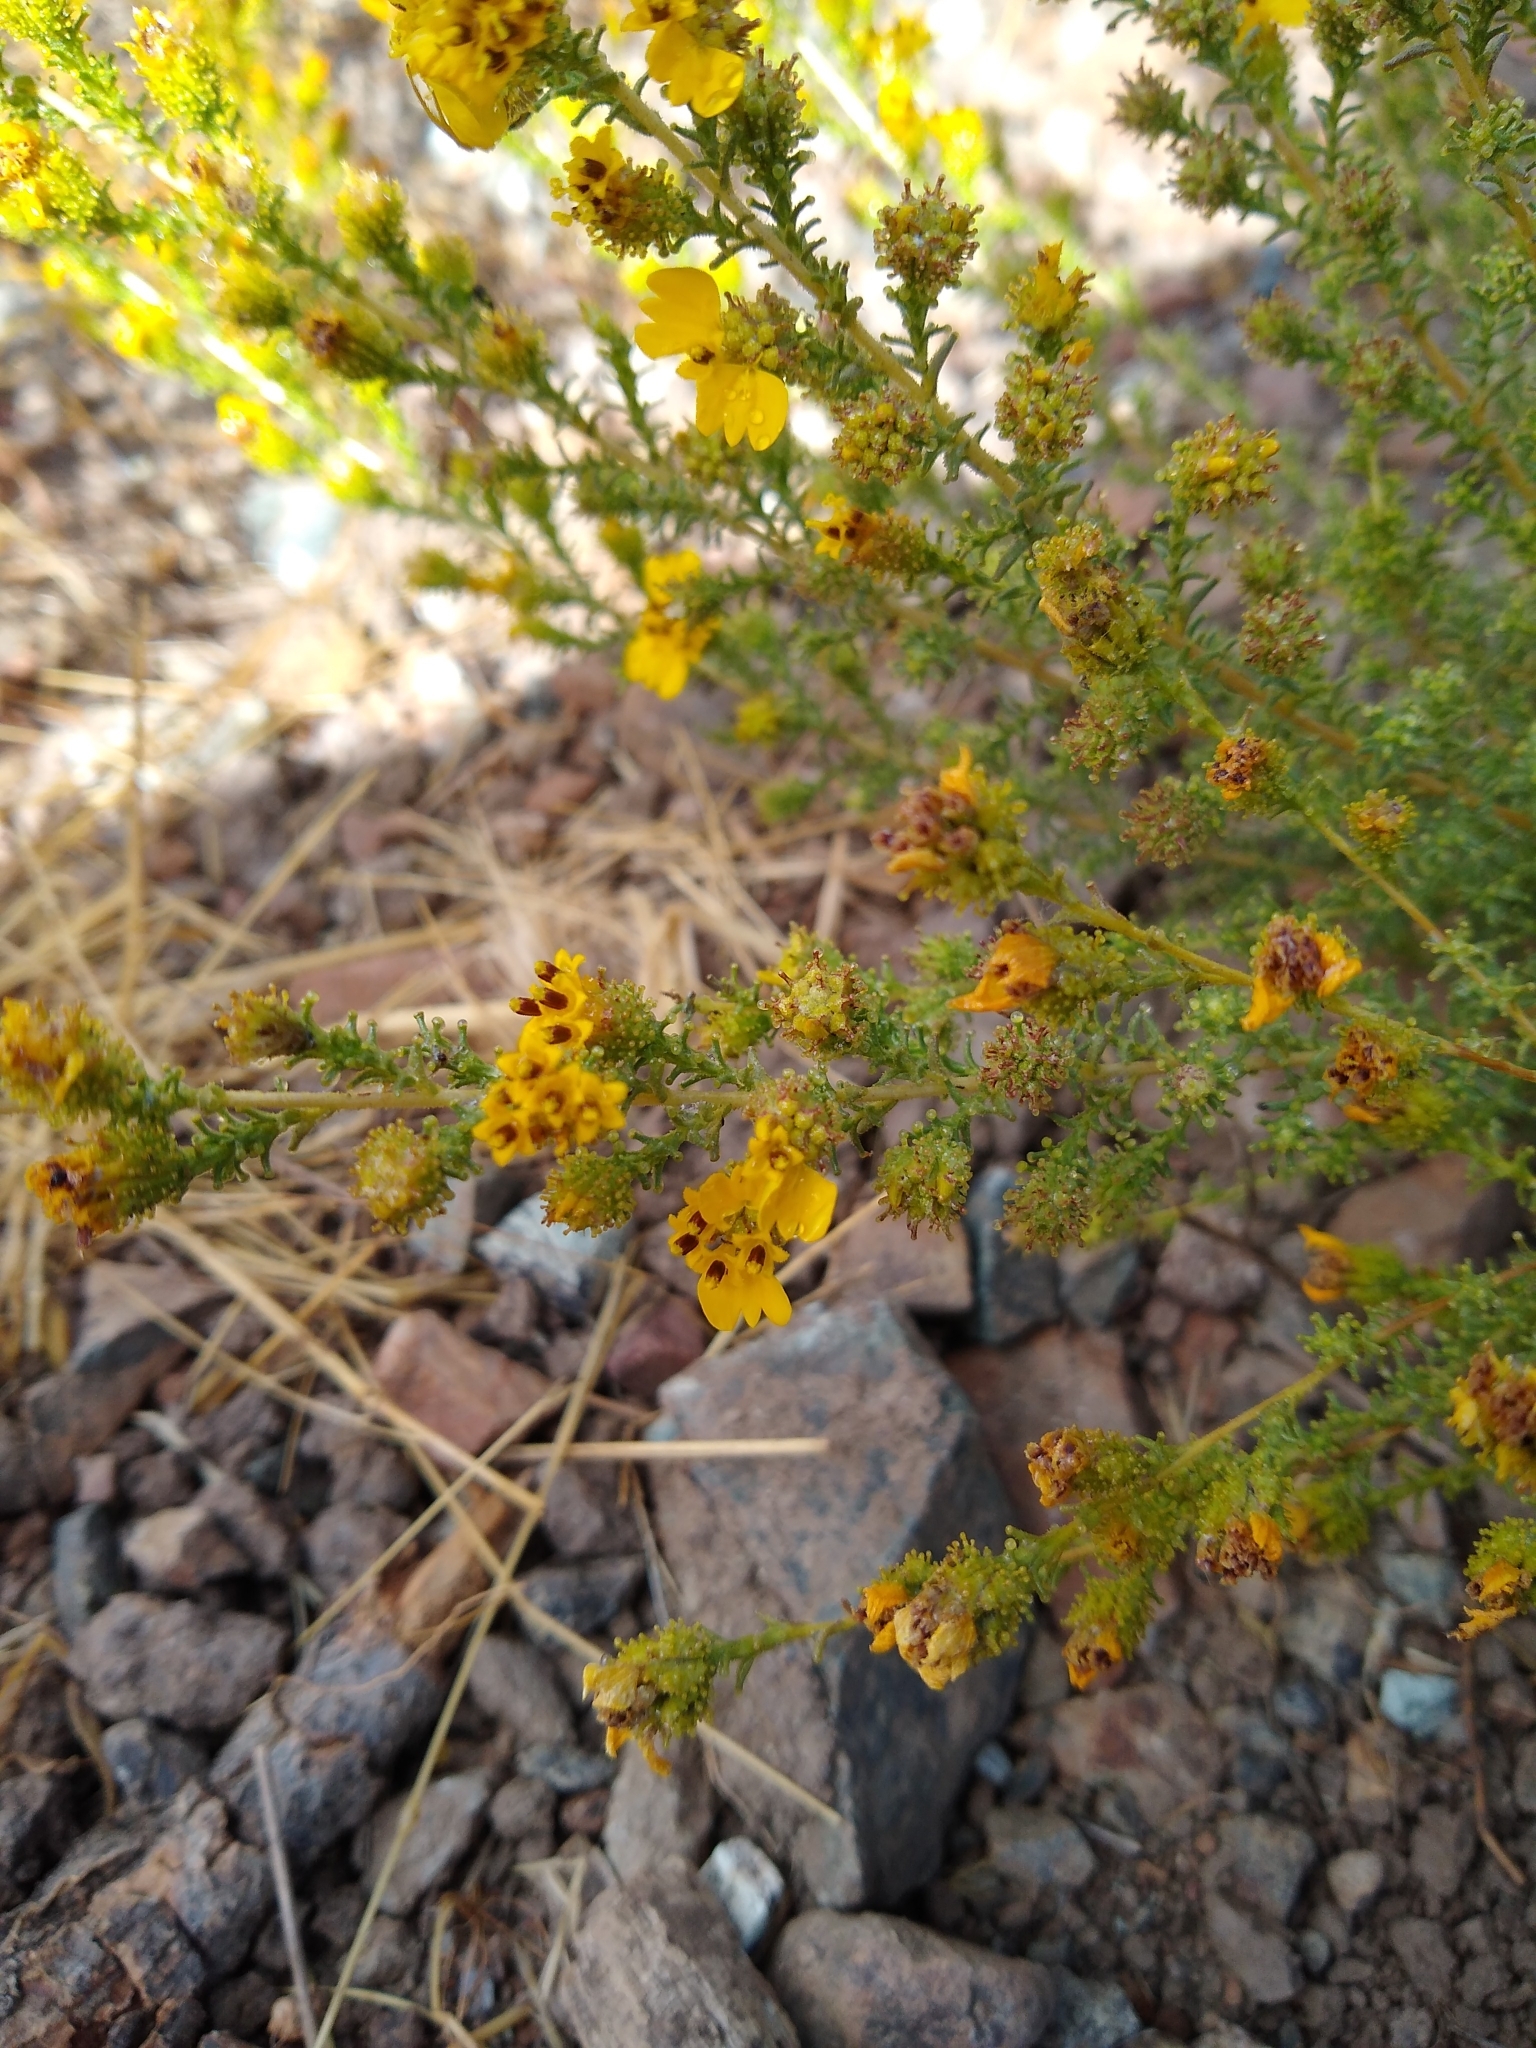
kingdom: Plantae
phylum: Tracheophyta
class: Magnoliopsida
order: Asterales
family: Asteraceae
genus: Holocarpha
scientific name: Holocarpha virgata
